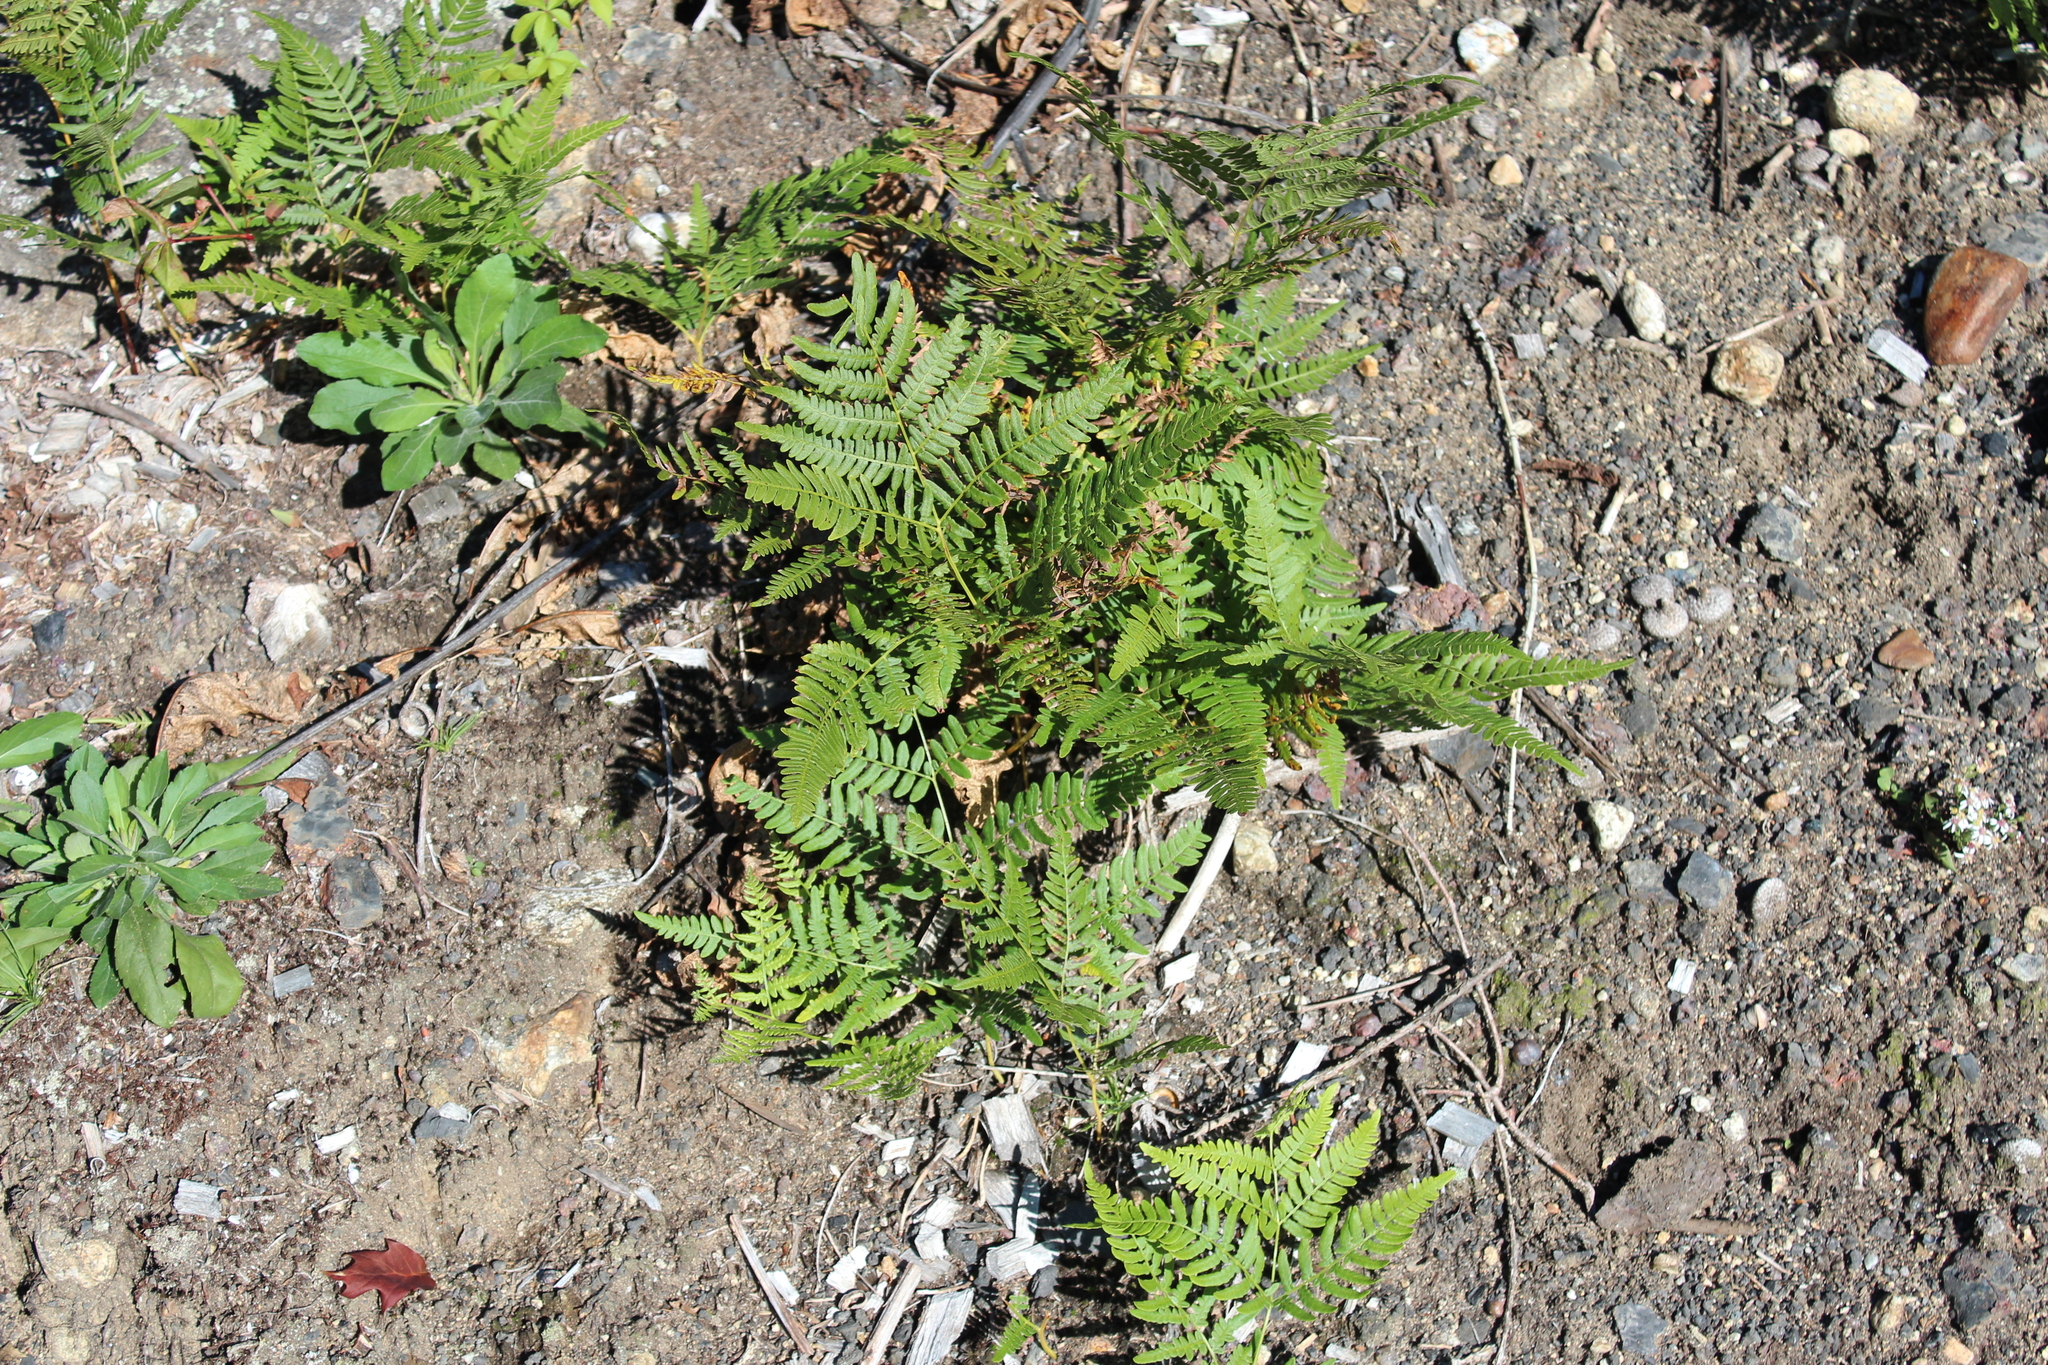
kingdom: Plantae
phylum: Tracheophyta
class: Polypodiopsida
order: Polypodiales
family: Dennstaedtiaceae
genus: Pteridium
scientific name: Pteridium aquilinum
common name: Bracken
